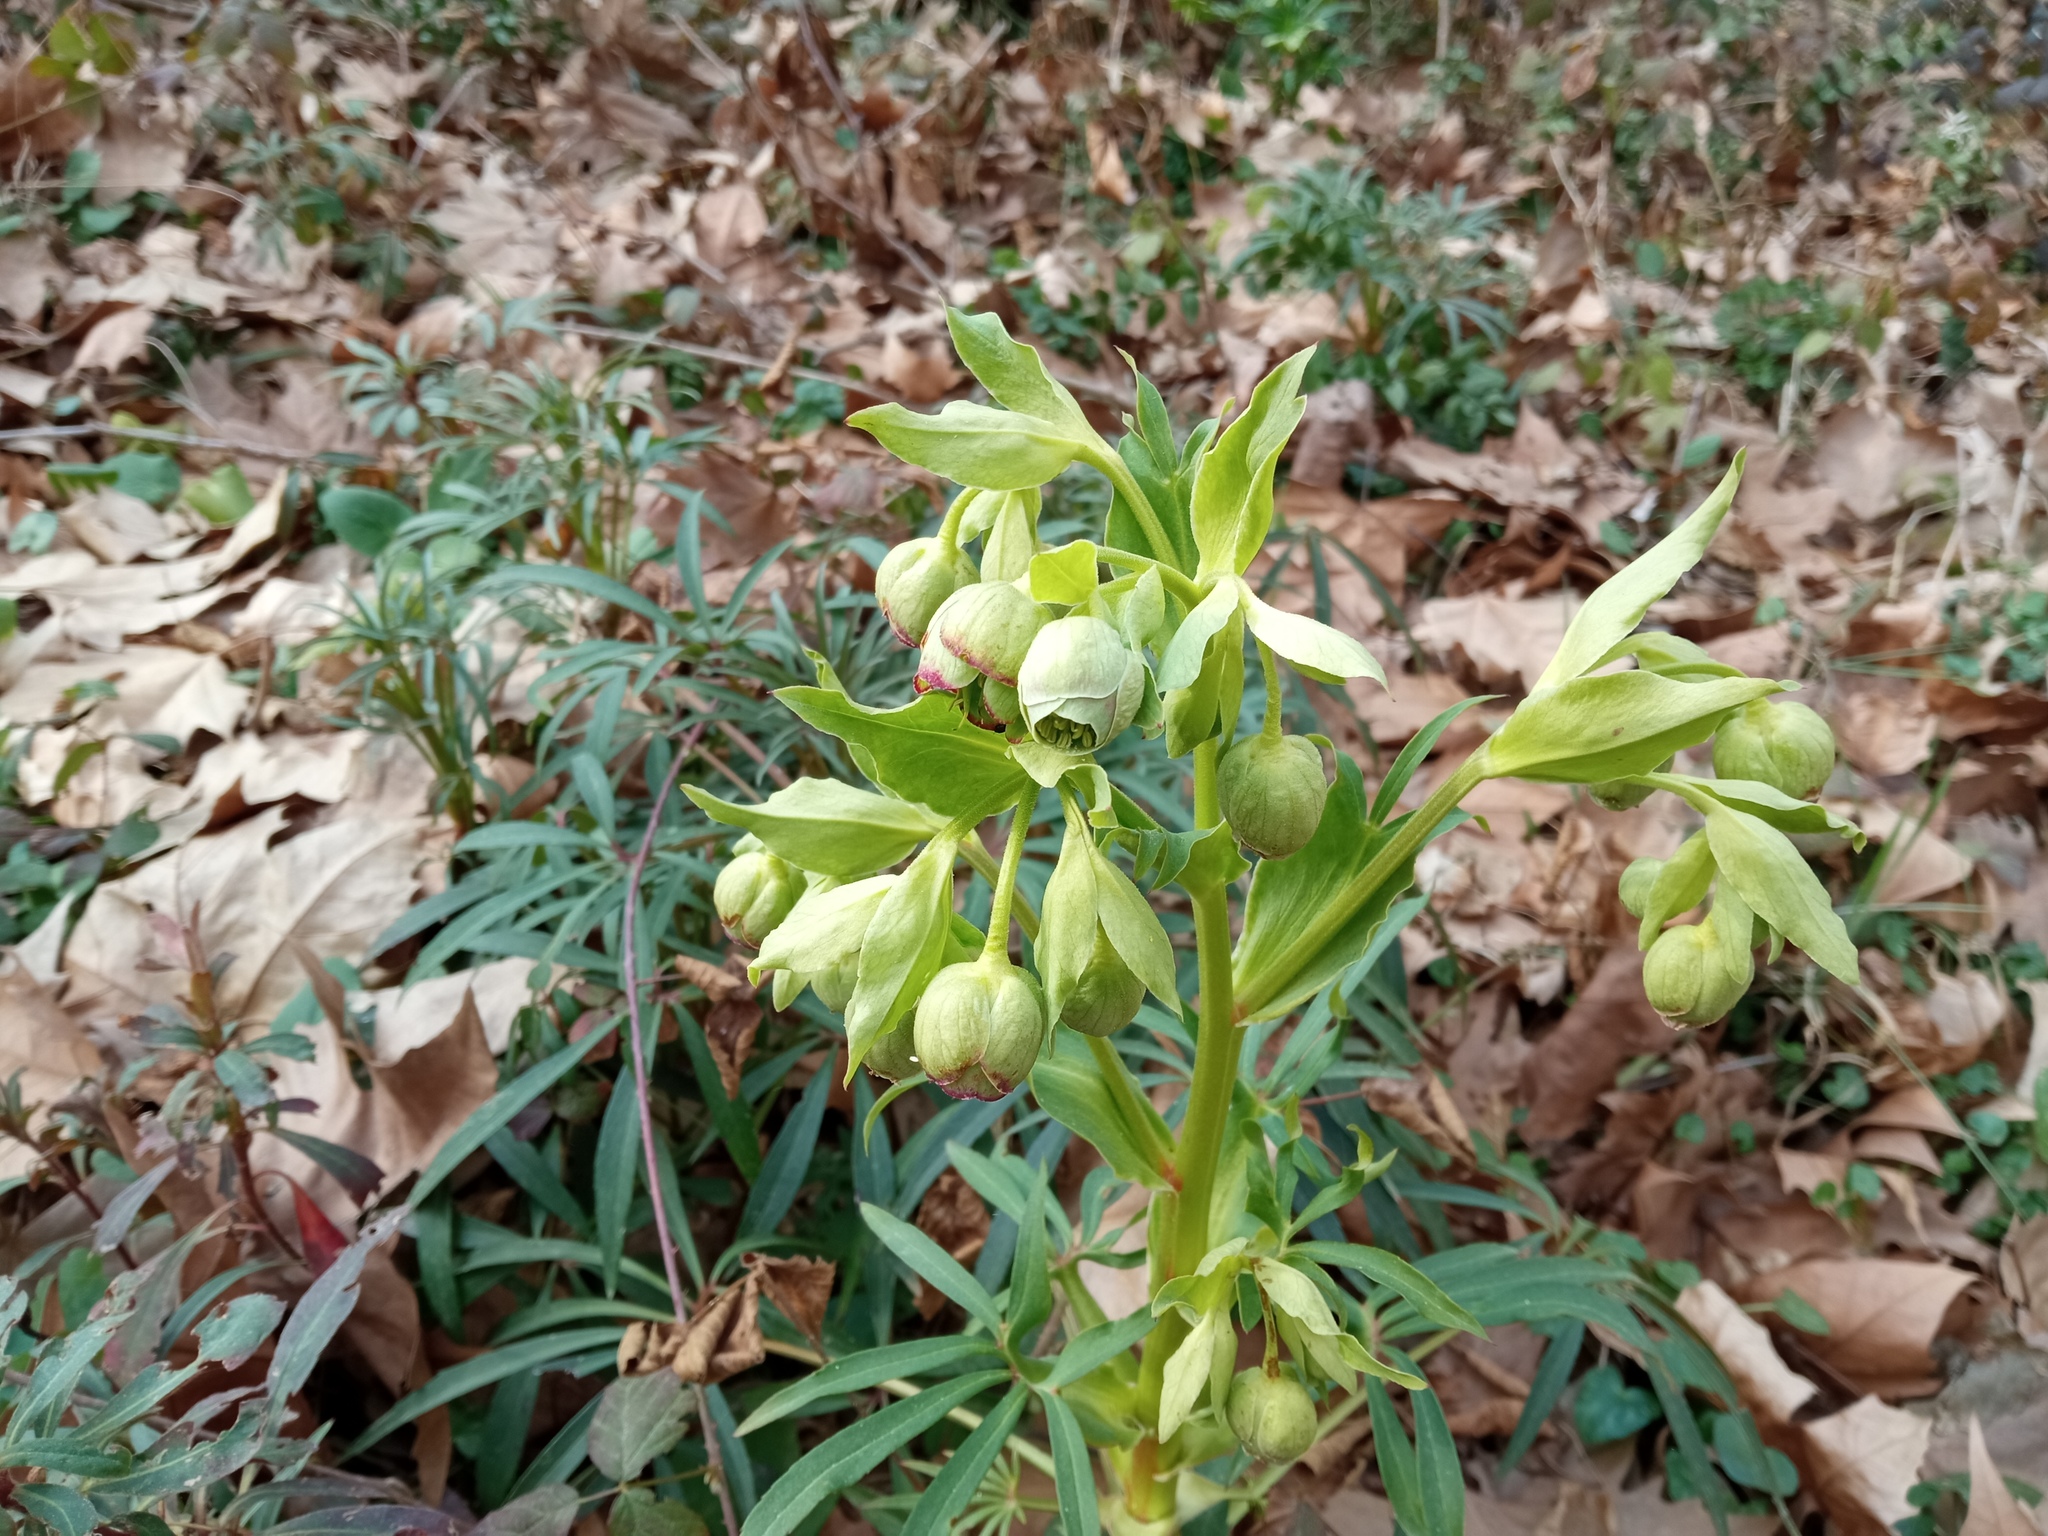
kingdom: Plantae
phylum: Tracheophyta
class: Magnoliopsida
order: Ranunculales
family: Ranunculaceae
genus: Helleborus
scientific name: Helleborus foetidus
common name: Stinking hellebore
